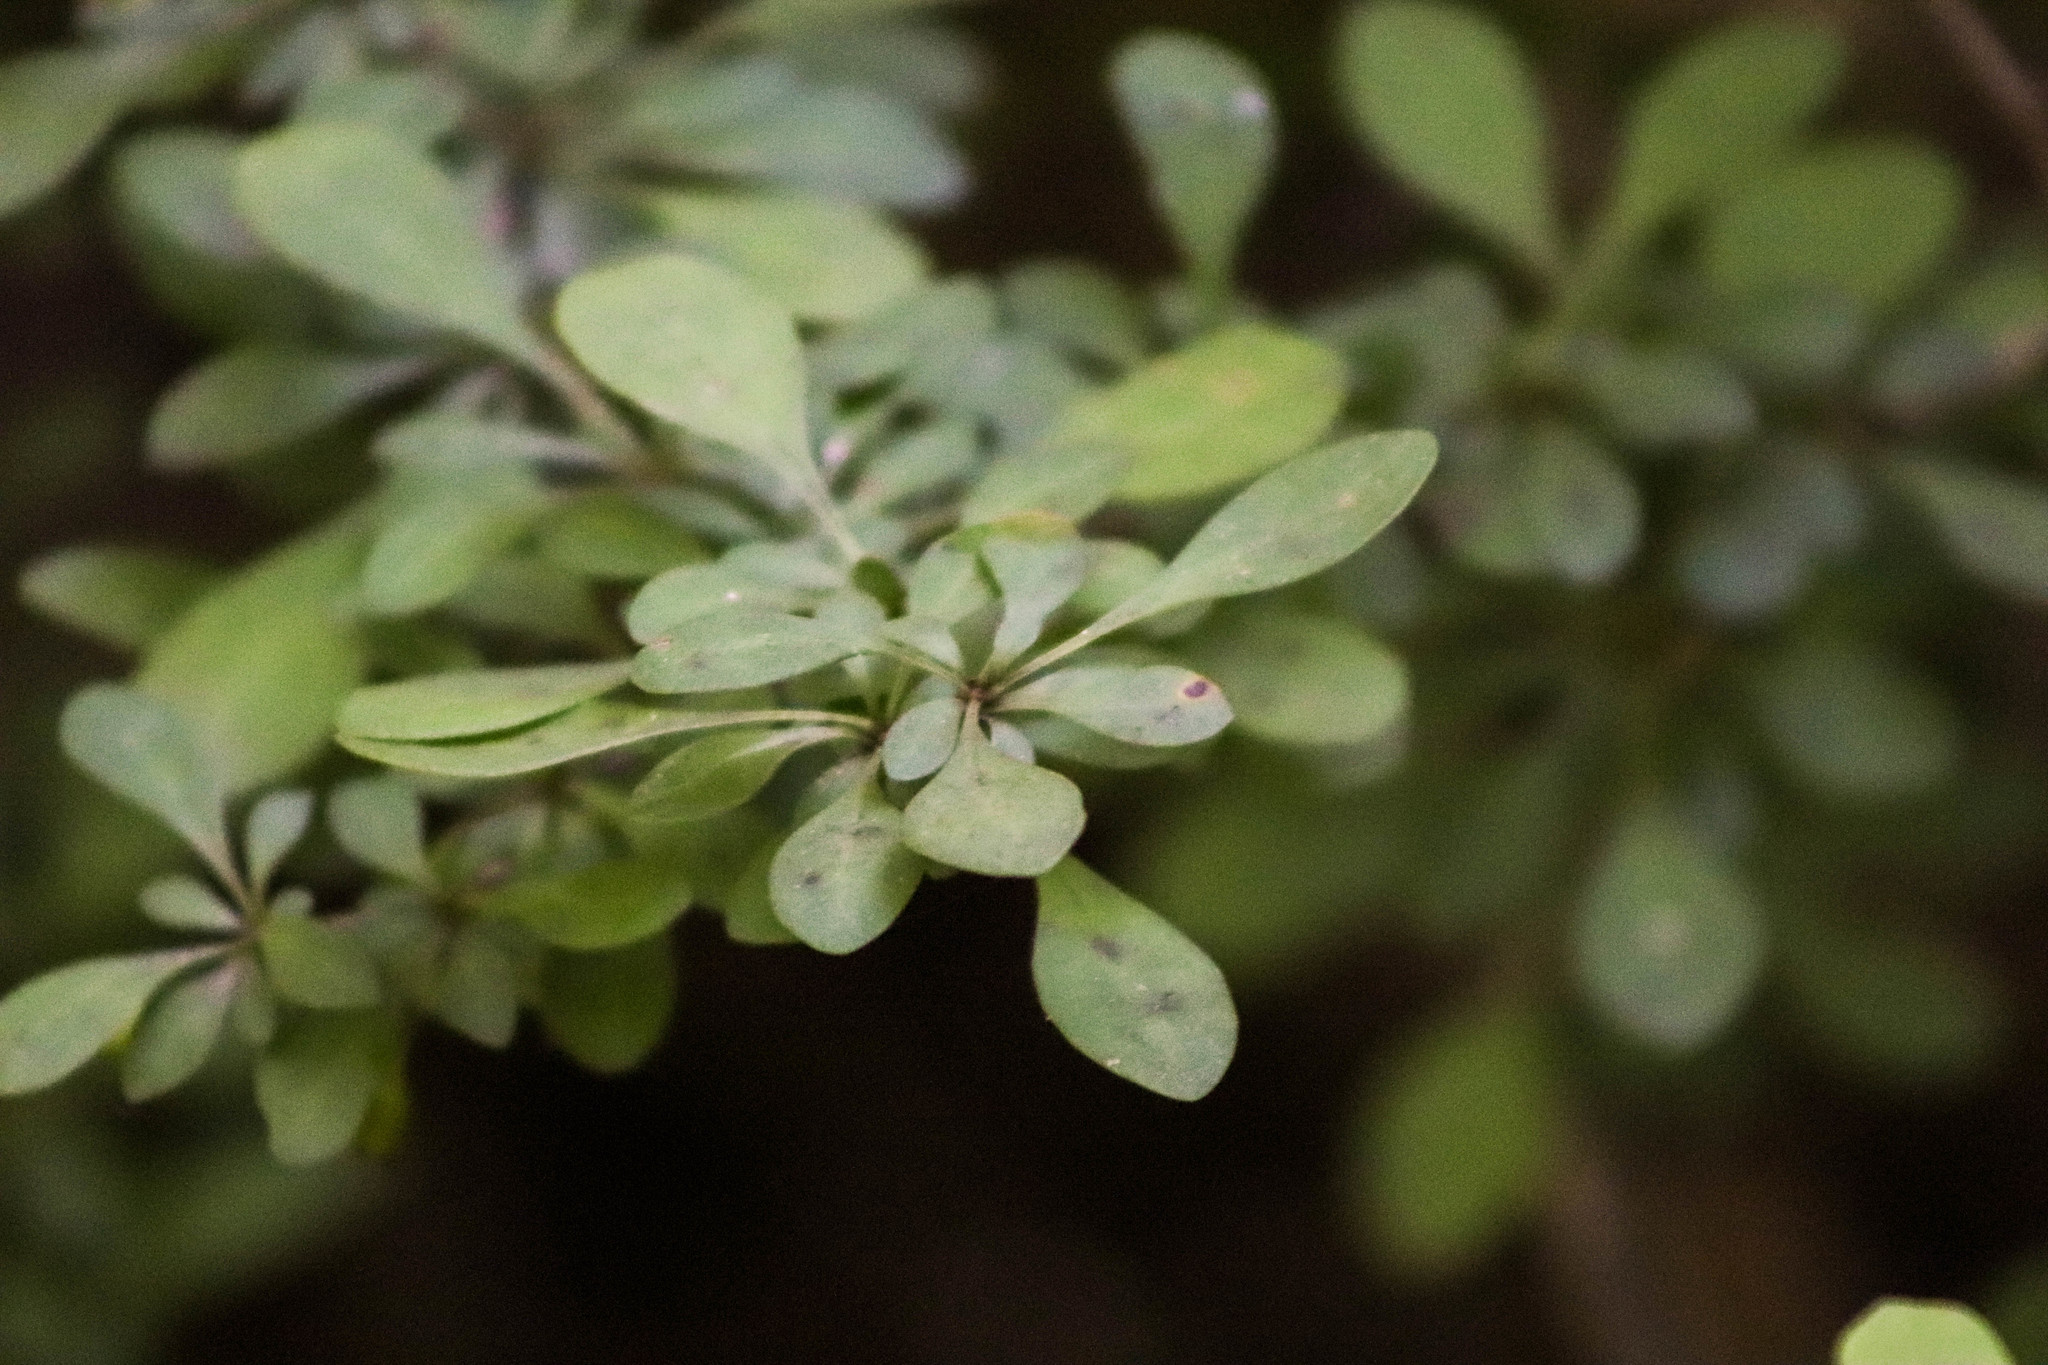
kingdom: Plantae
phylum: Tracheophyta
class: Magnoliopsida
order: Ranunculales
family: Berberidaceae
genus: Berberis
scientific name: Berberis thunbergii
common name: Japanese barberry
